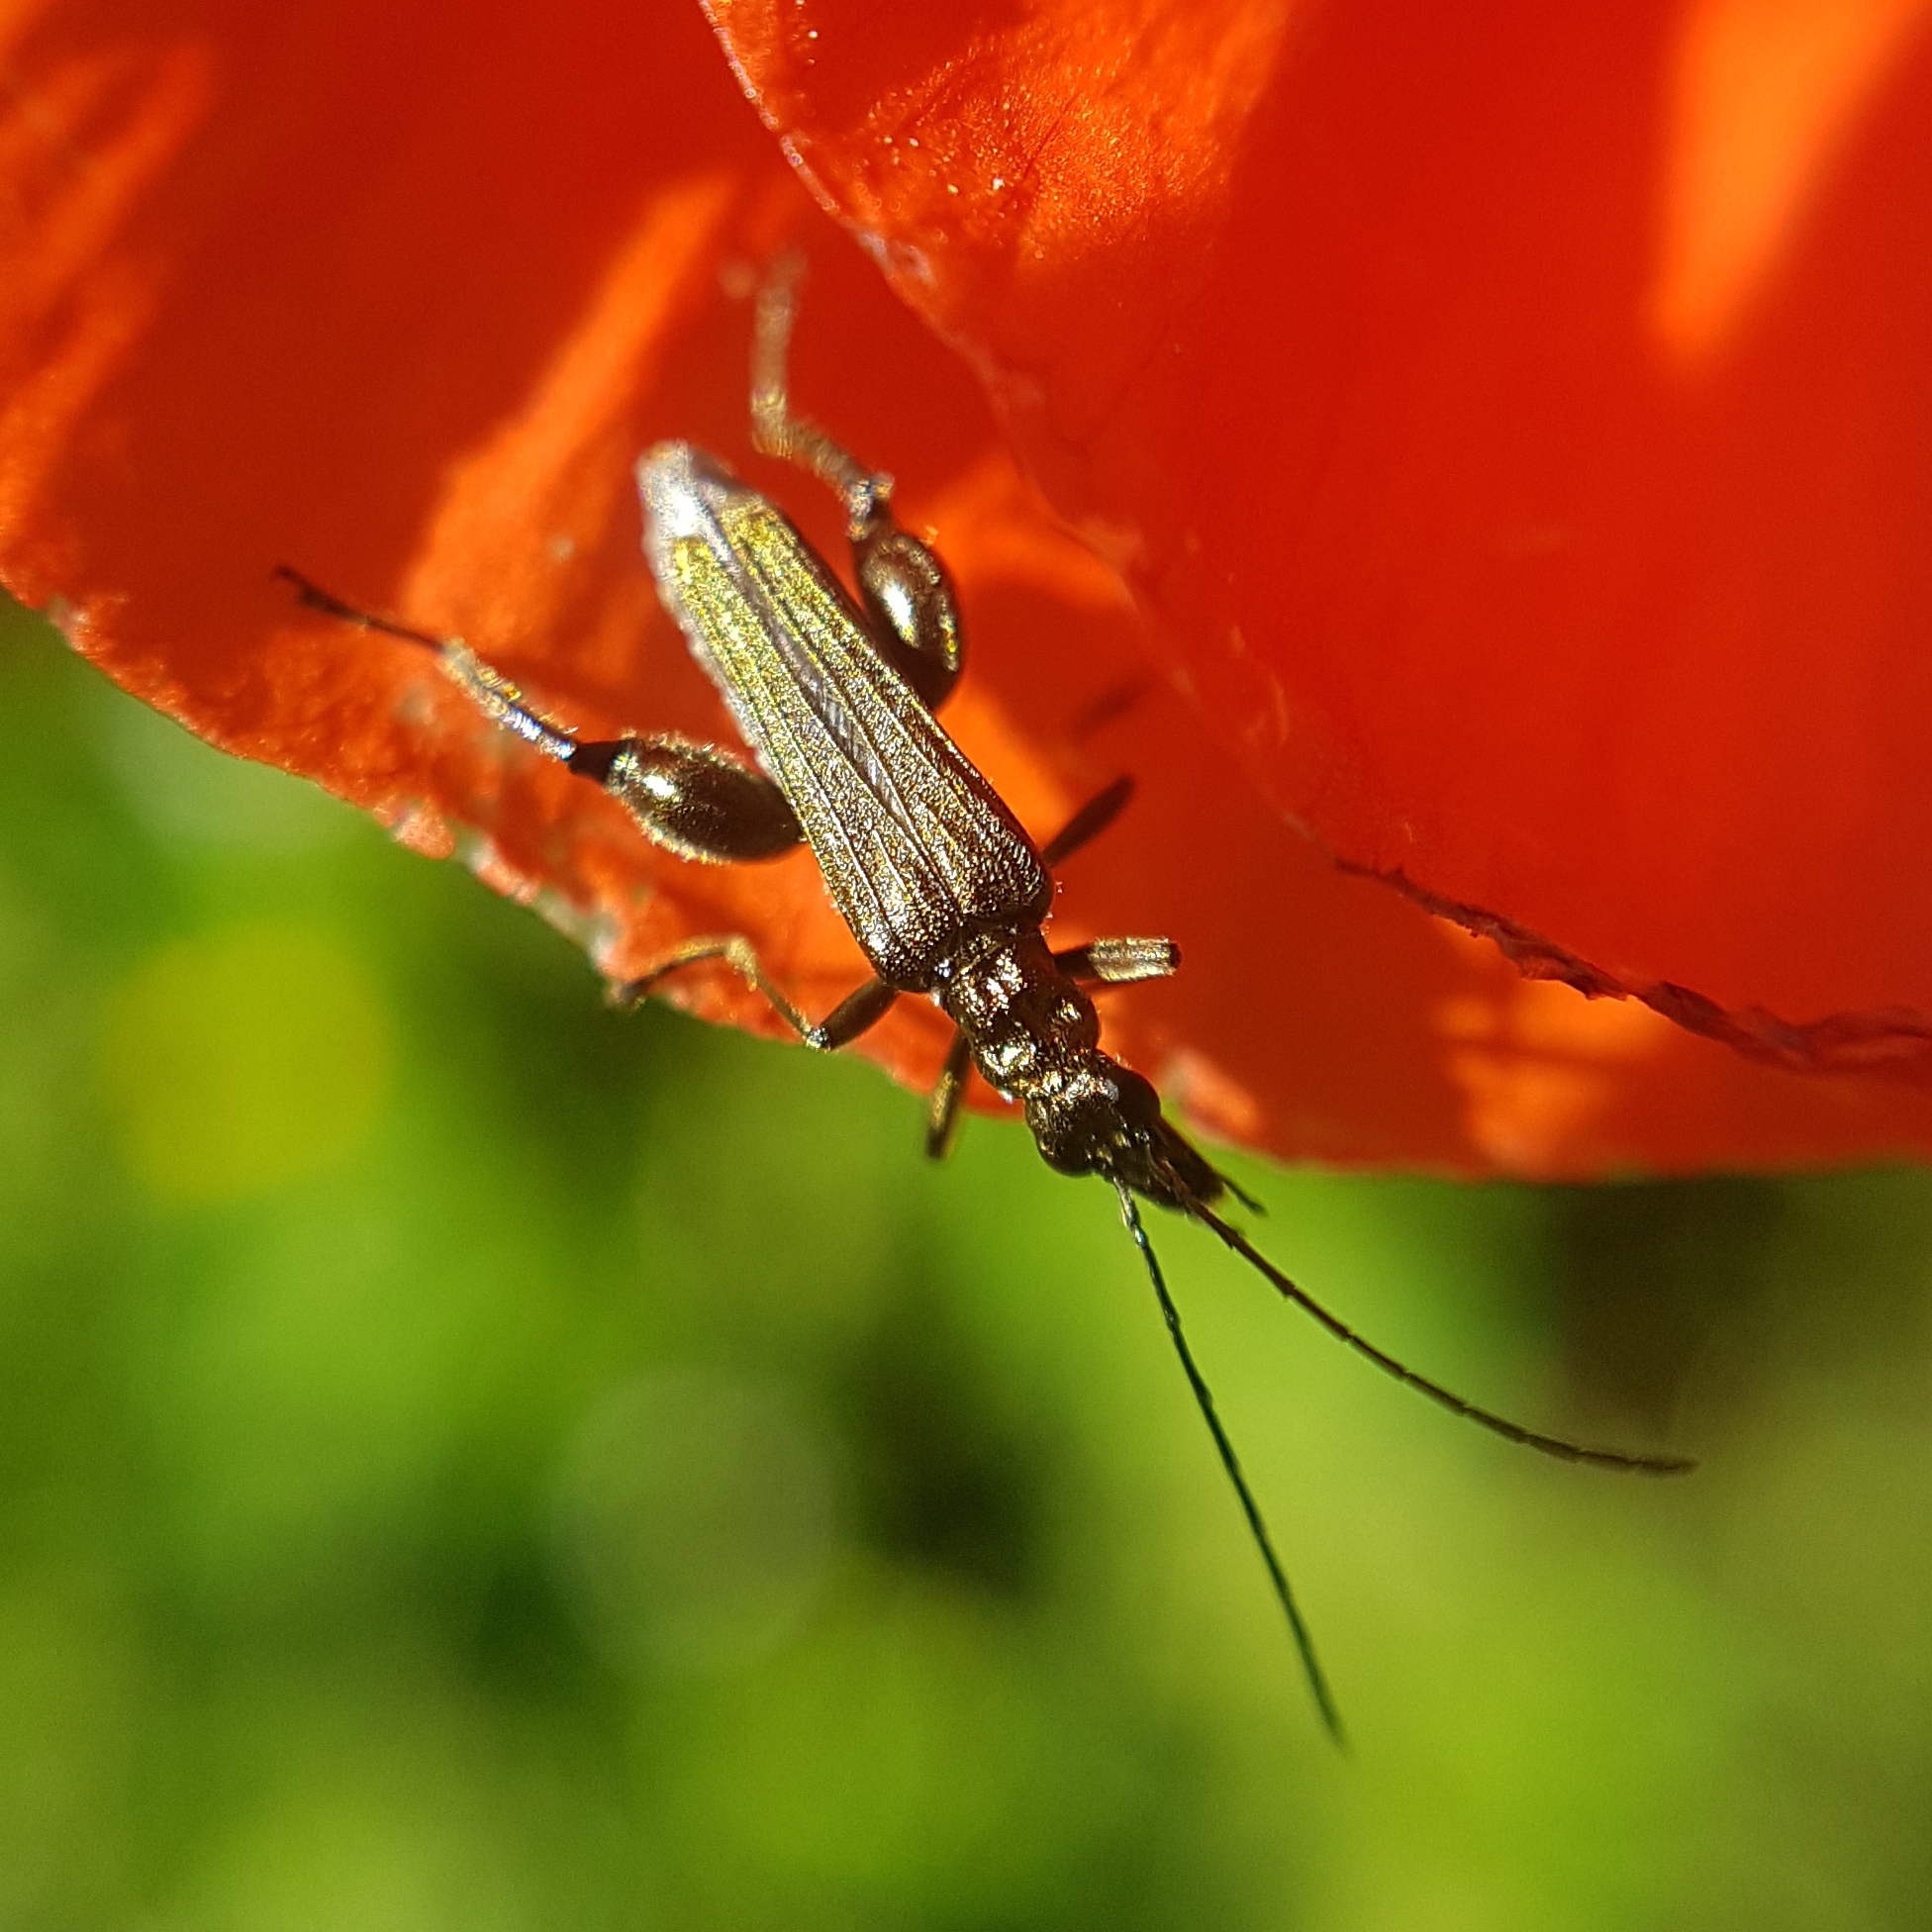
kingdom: Animalia
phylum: Arthropoda
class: Insecta
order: Coleoptera
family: Oedemeridae
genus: Oedemera
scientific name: Oedemera flavipes
